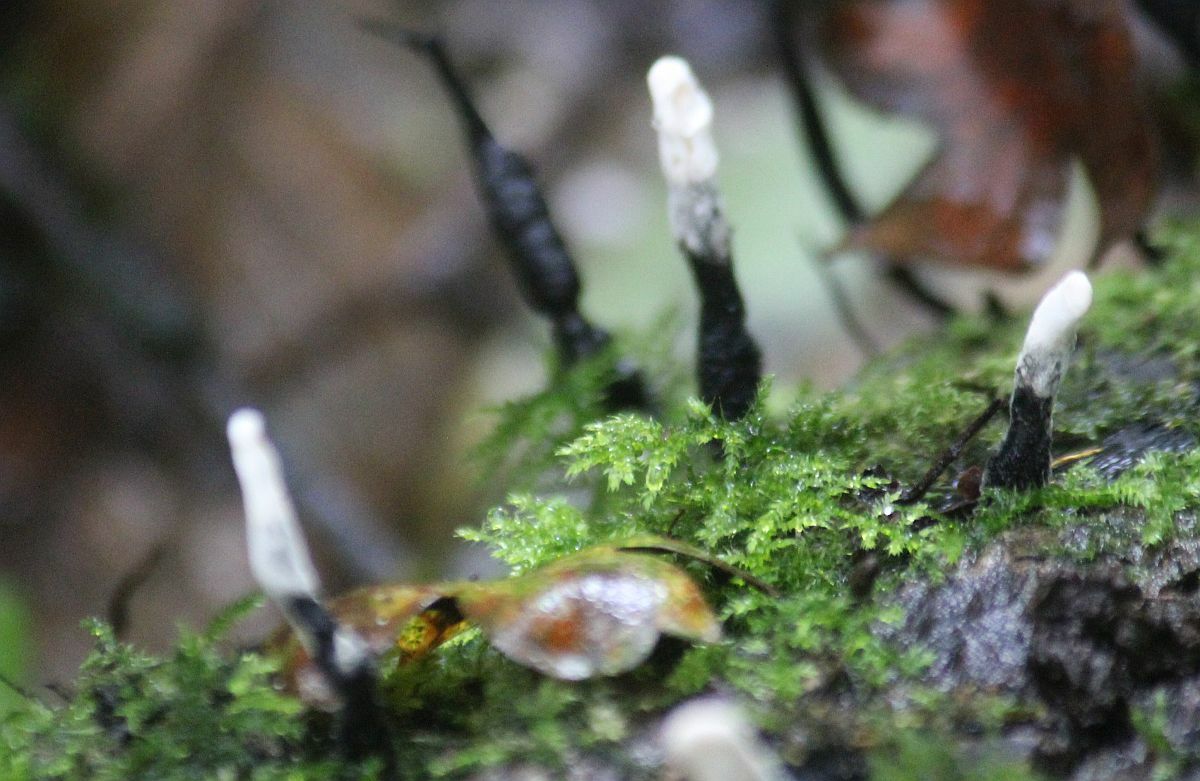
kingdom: Fungi
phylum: Ascomycota
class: Sordariomycetes
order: Xylariales
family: Xylariaceae
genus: Xylaria
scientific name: Xylaria hypoxylon
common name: Candle-snuff fungus
